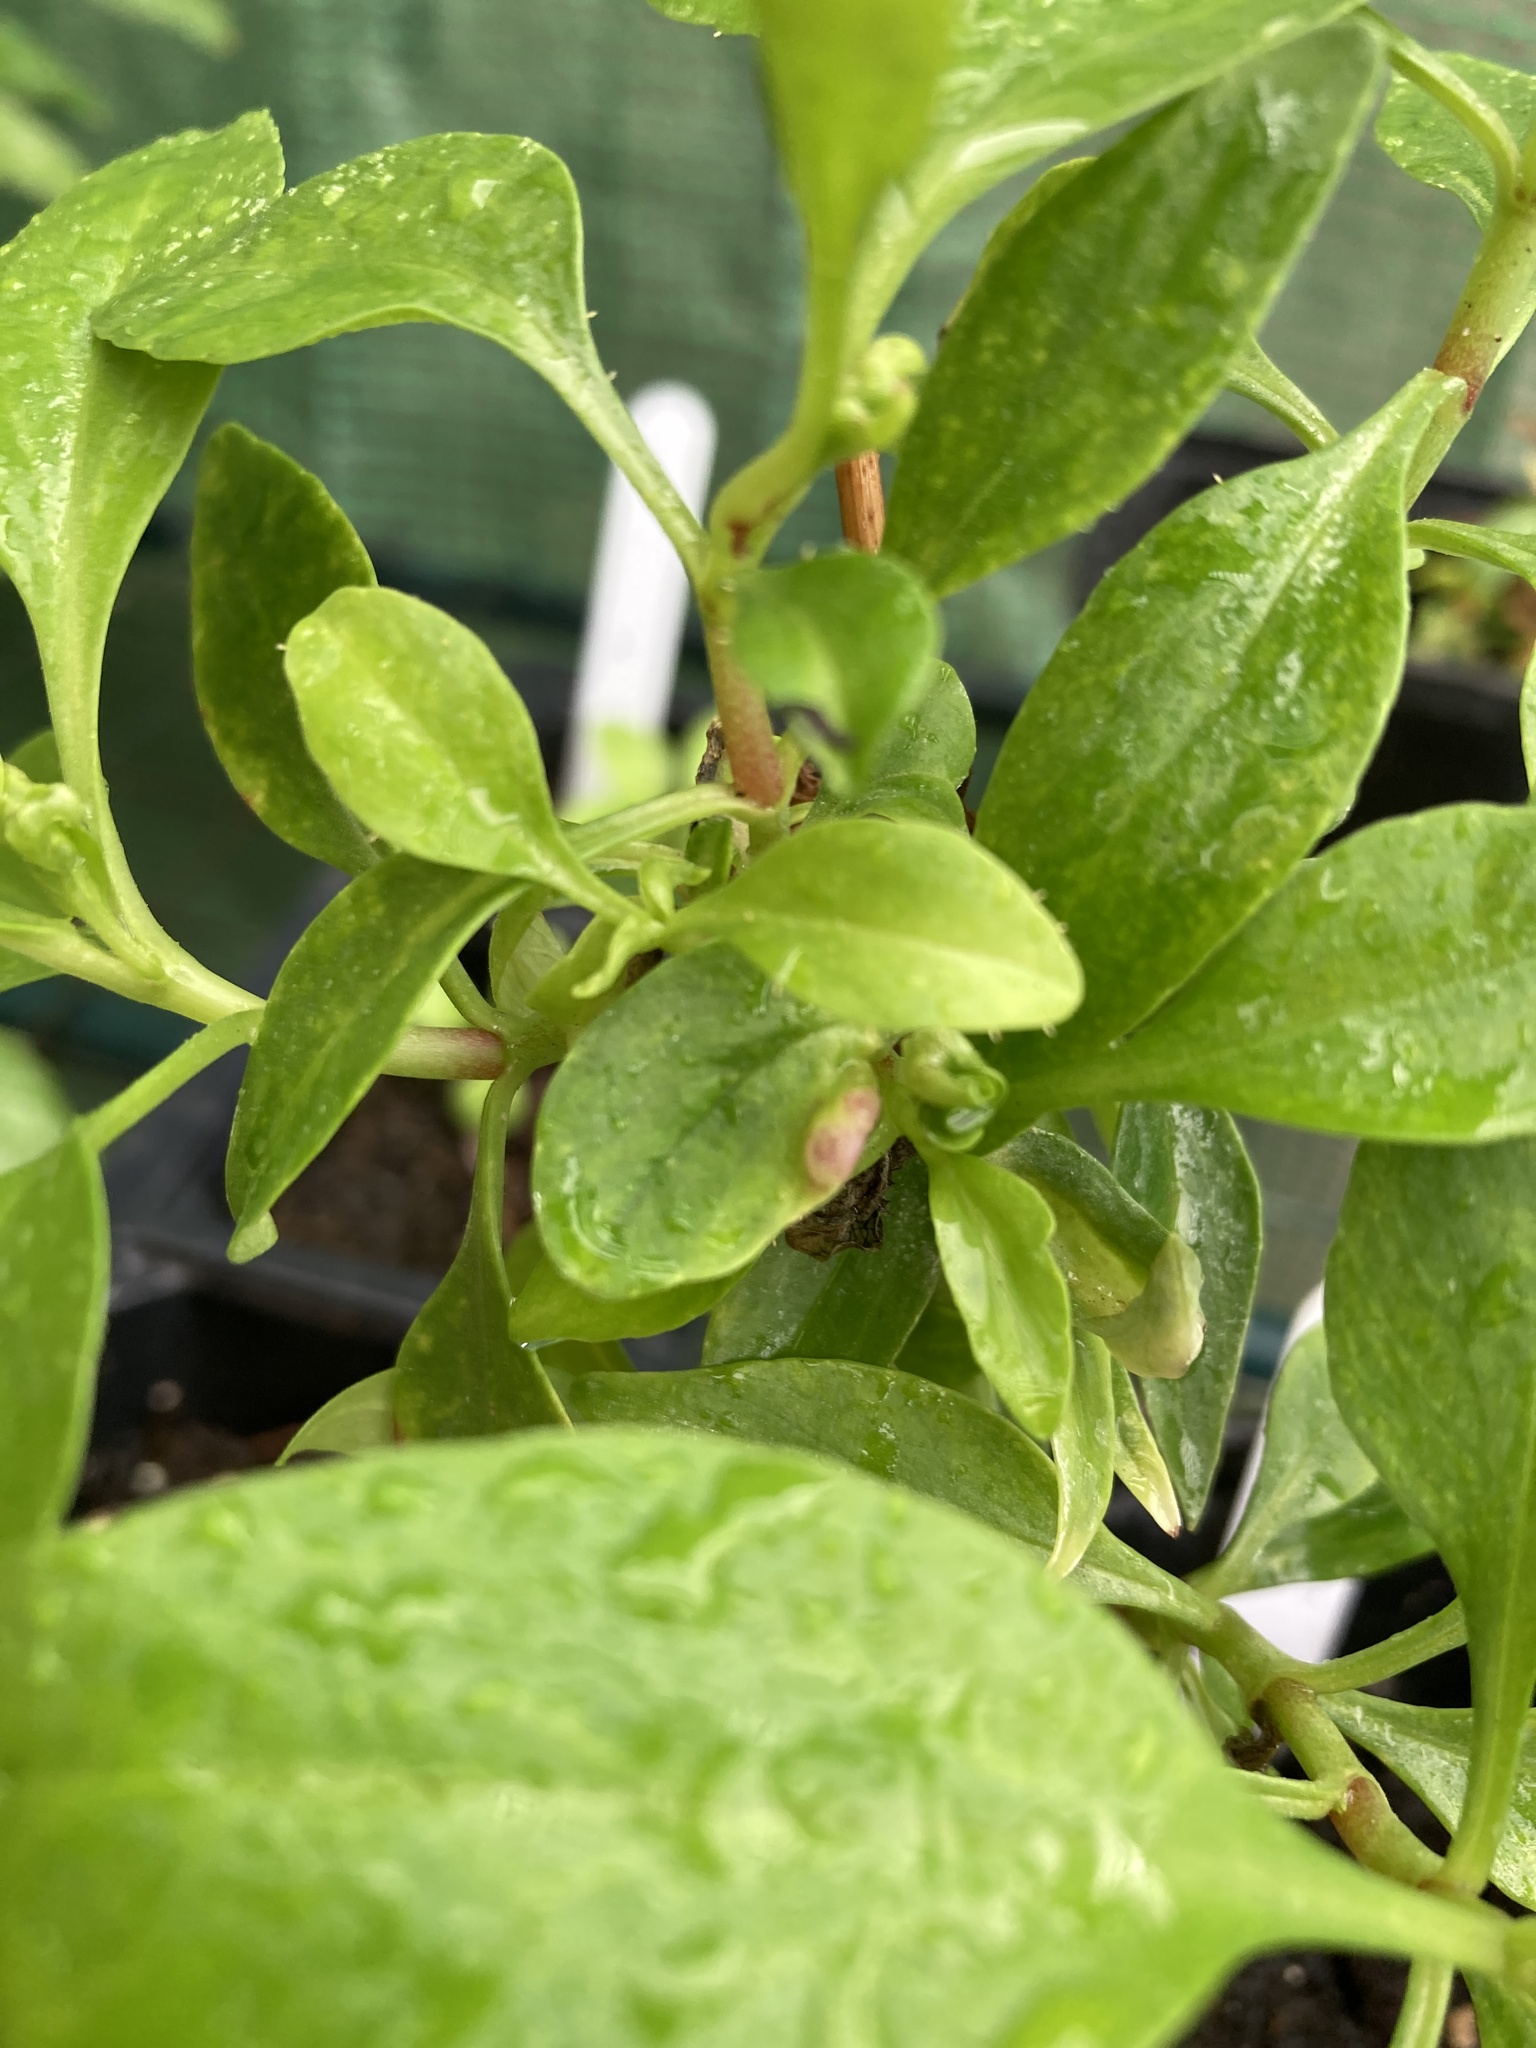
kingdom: Animalia
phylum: Arthropoda
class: Insecta
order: Hemiptera
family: Triozidae
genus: Trioza
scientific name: Trioza centranthi
